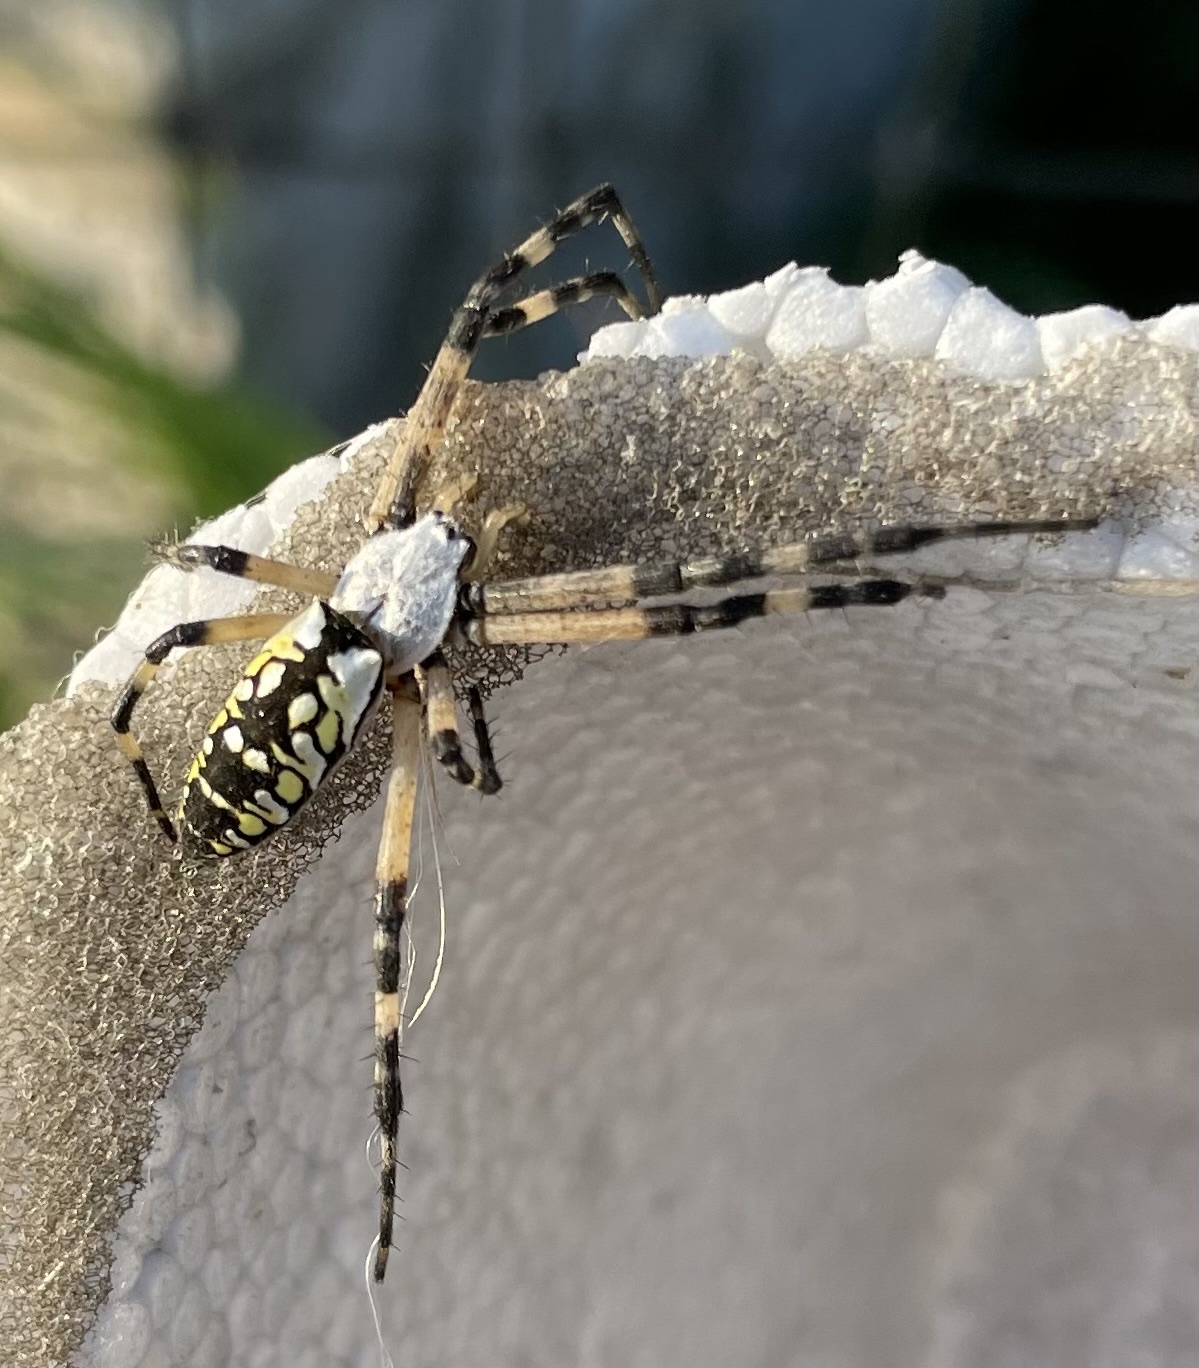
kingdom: Animalia
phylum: Arthropoda
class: Arachnida
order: Araneae
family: Araneidae
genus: Argiope
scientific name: Argiope aurantia
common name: Orb weavers
